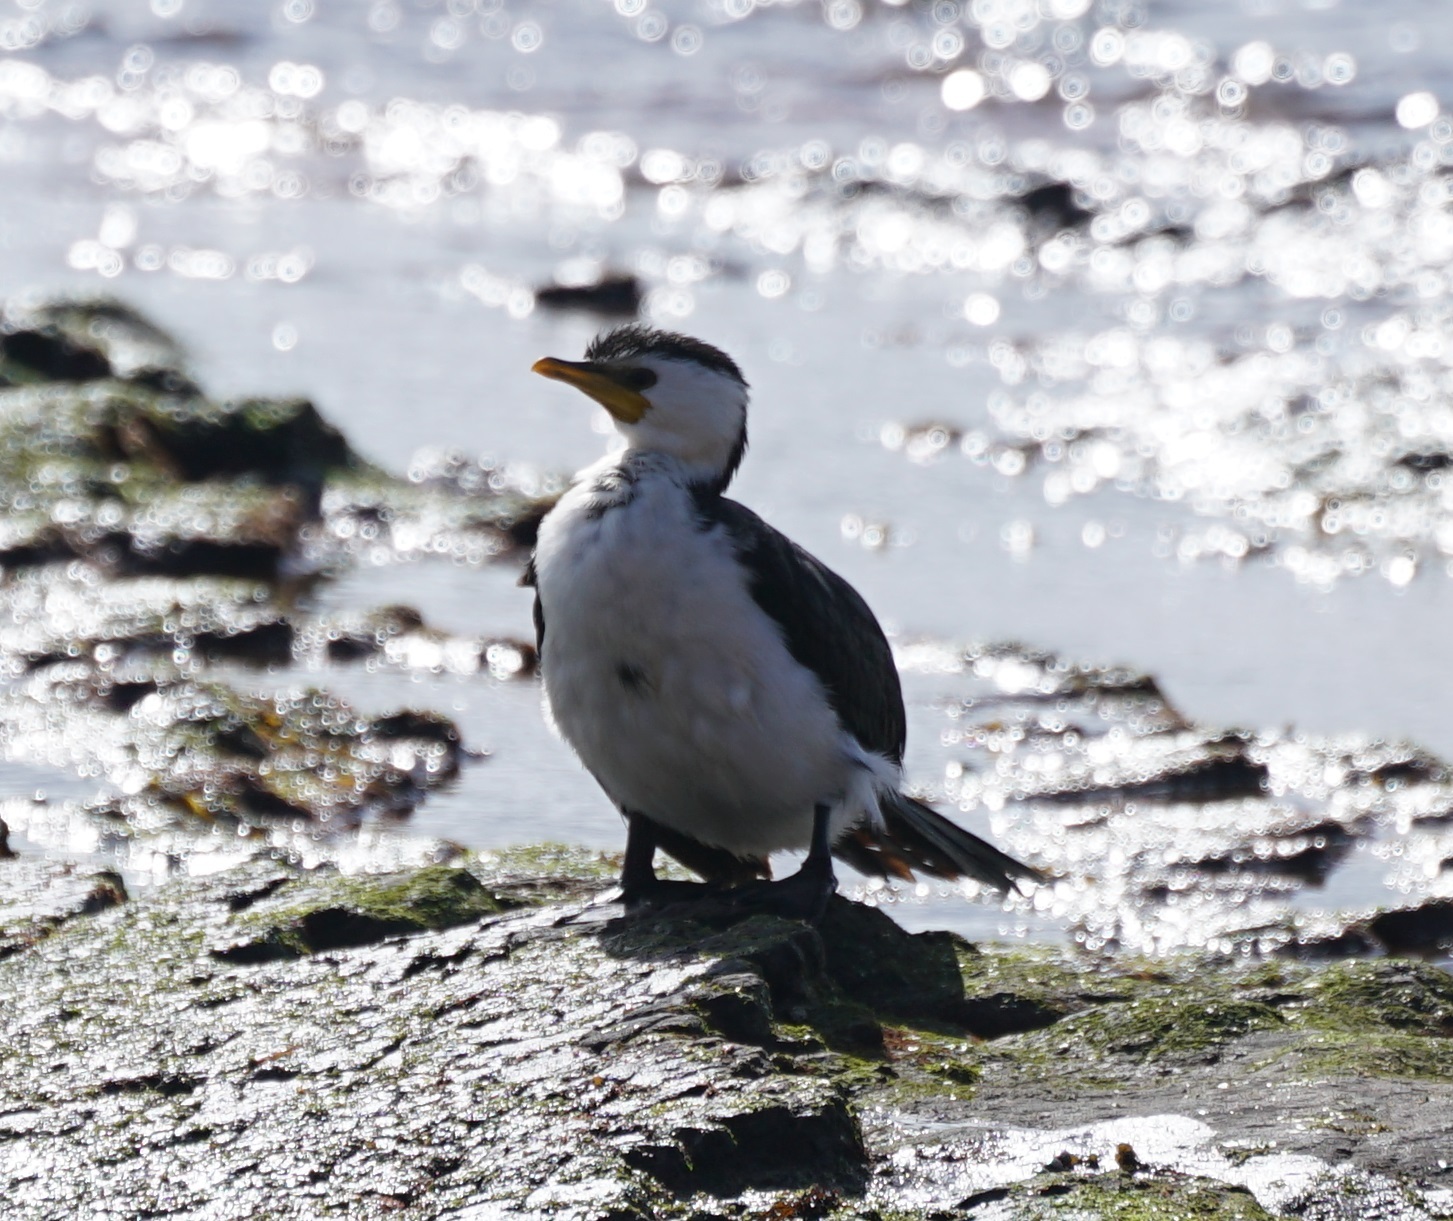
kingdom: Animalia
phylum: Chordata
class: Aves
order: Suliformes
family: Phalacrocoracidae
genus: Microcarbo
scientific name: Microcarbo melanoleucos
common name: Little pied cormorant
